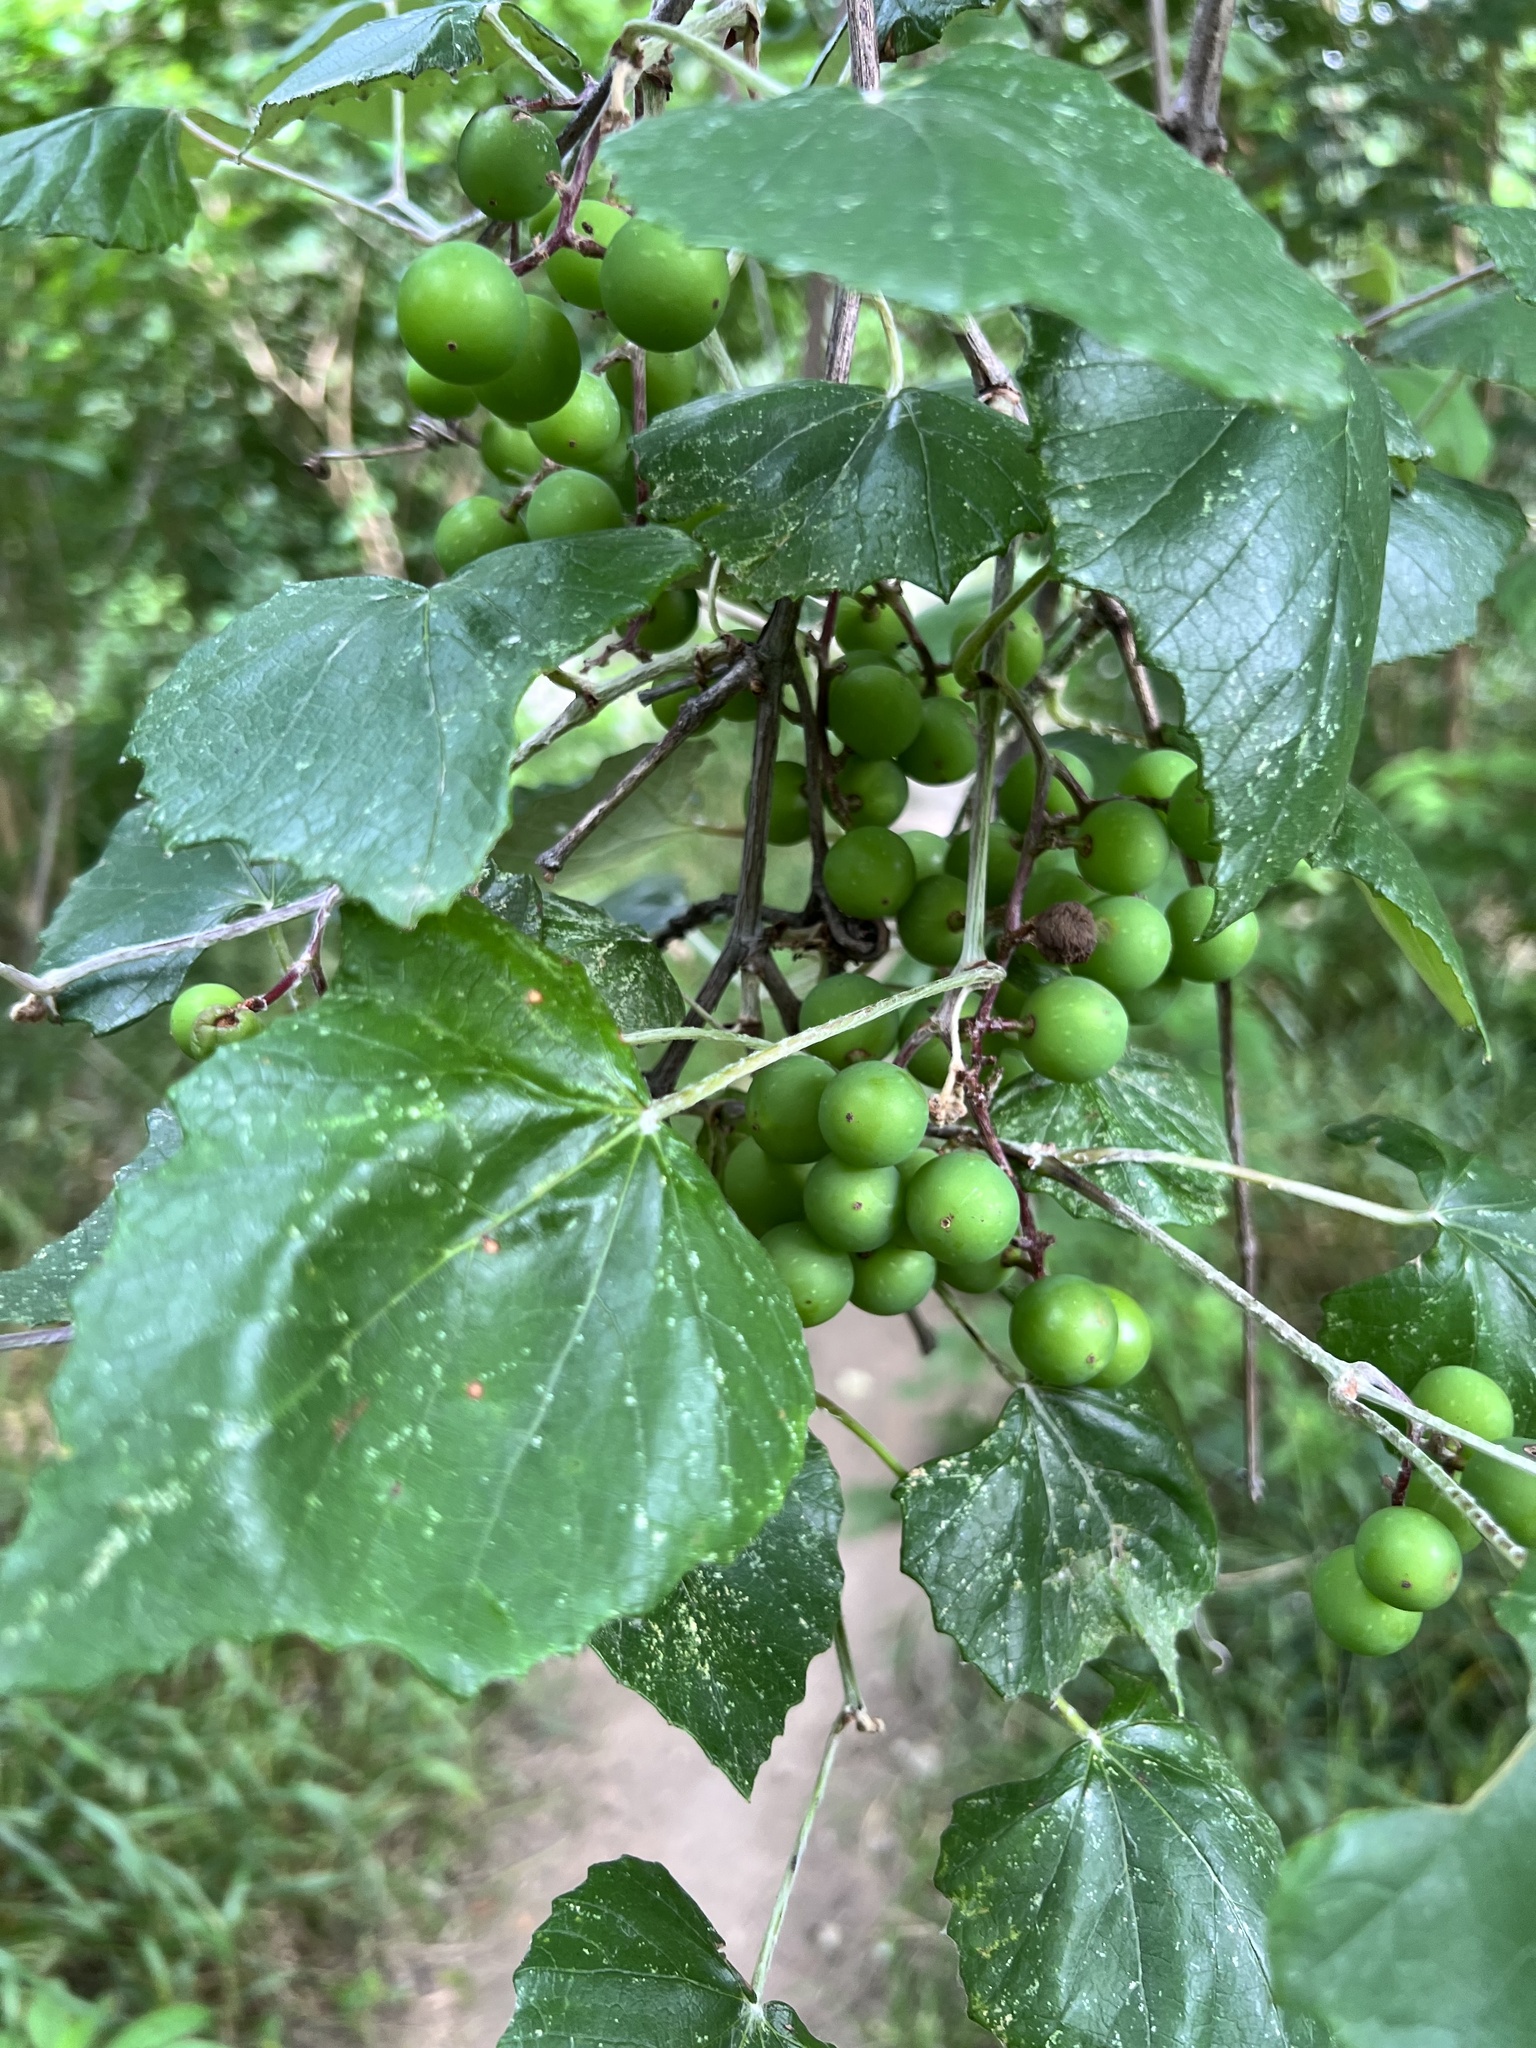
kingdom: Plantae
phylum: Tracheophyta
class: Magnoliopsida
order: Vitales
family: Vitaceae
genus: Vitis
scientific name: Vitis mustangensis
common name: Mustang grape
